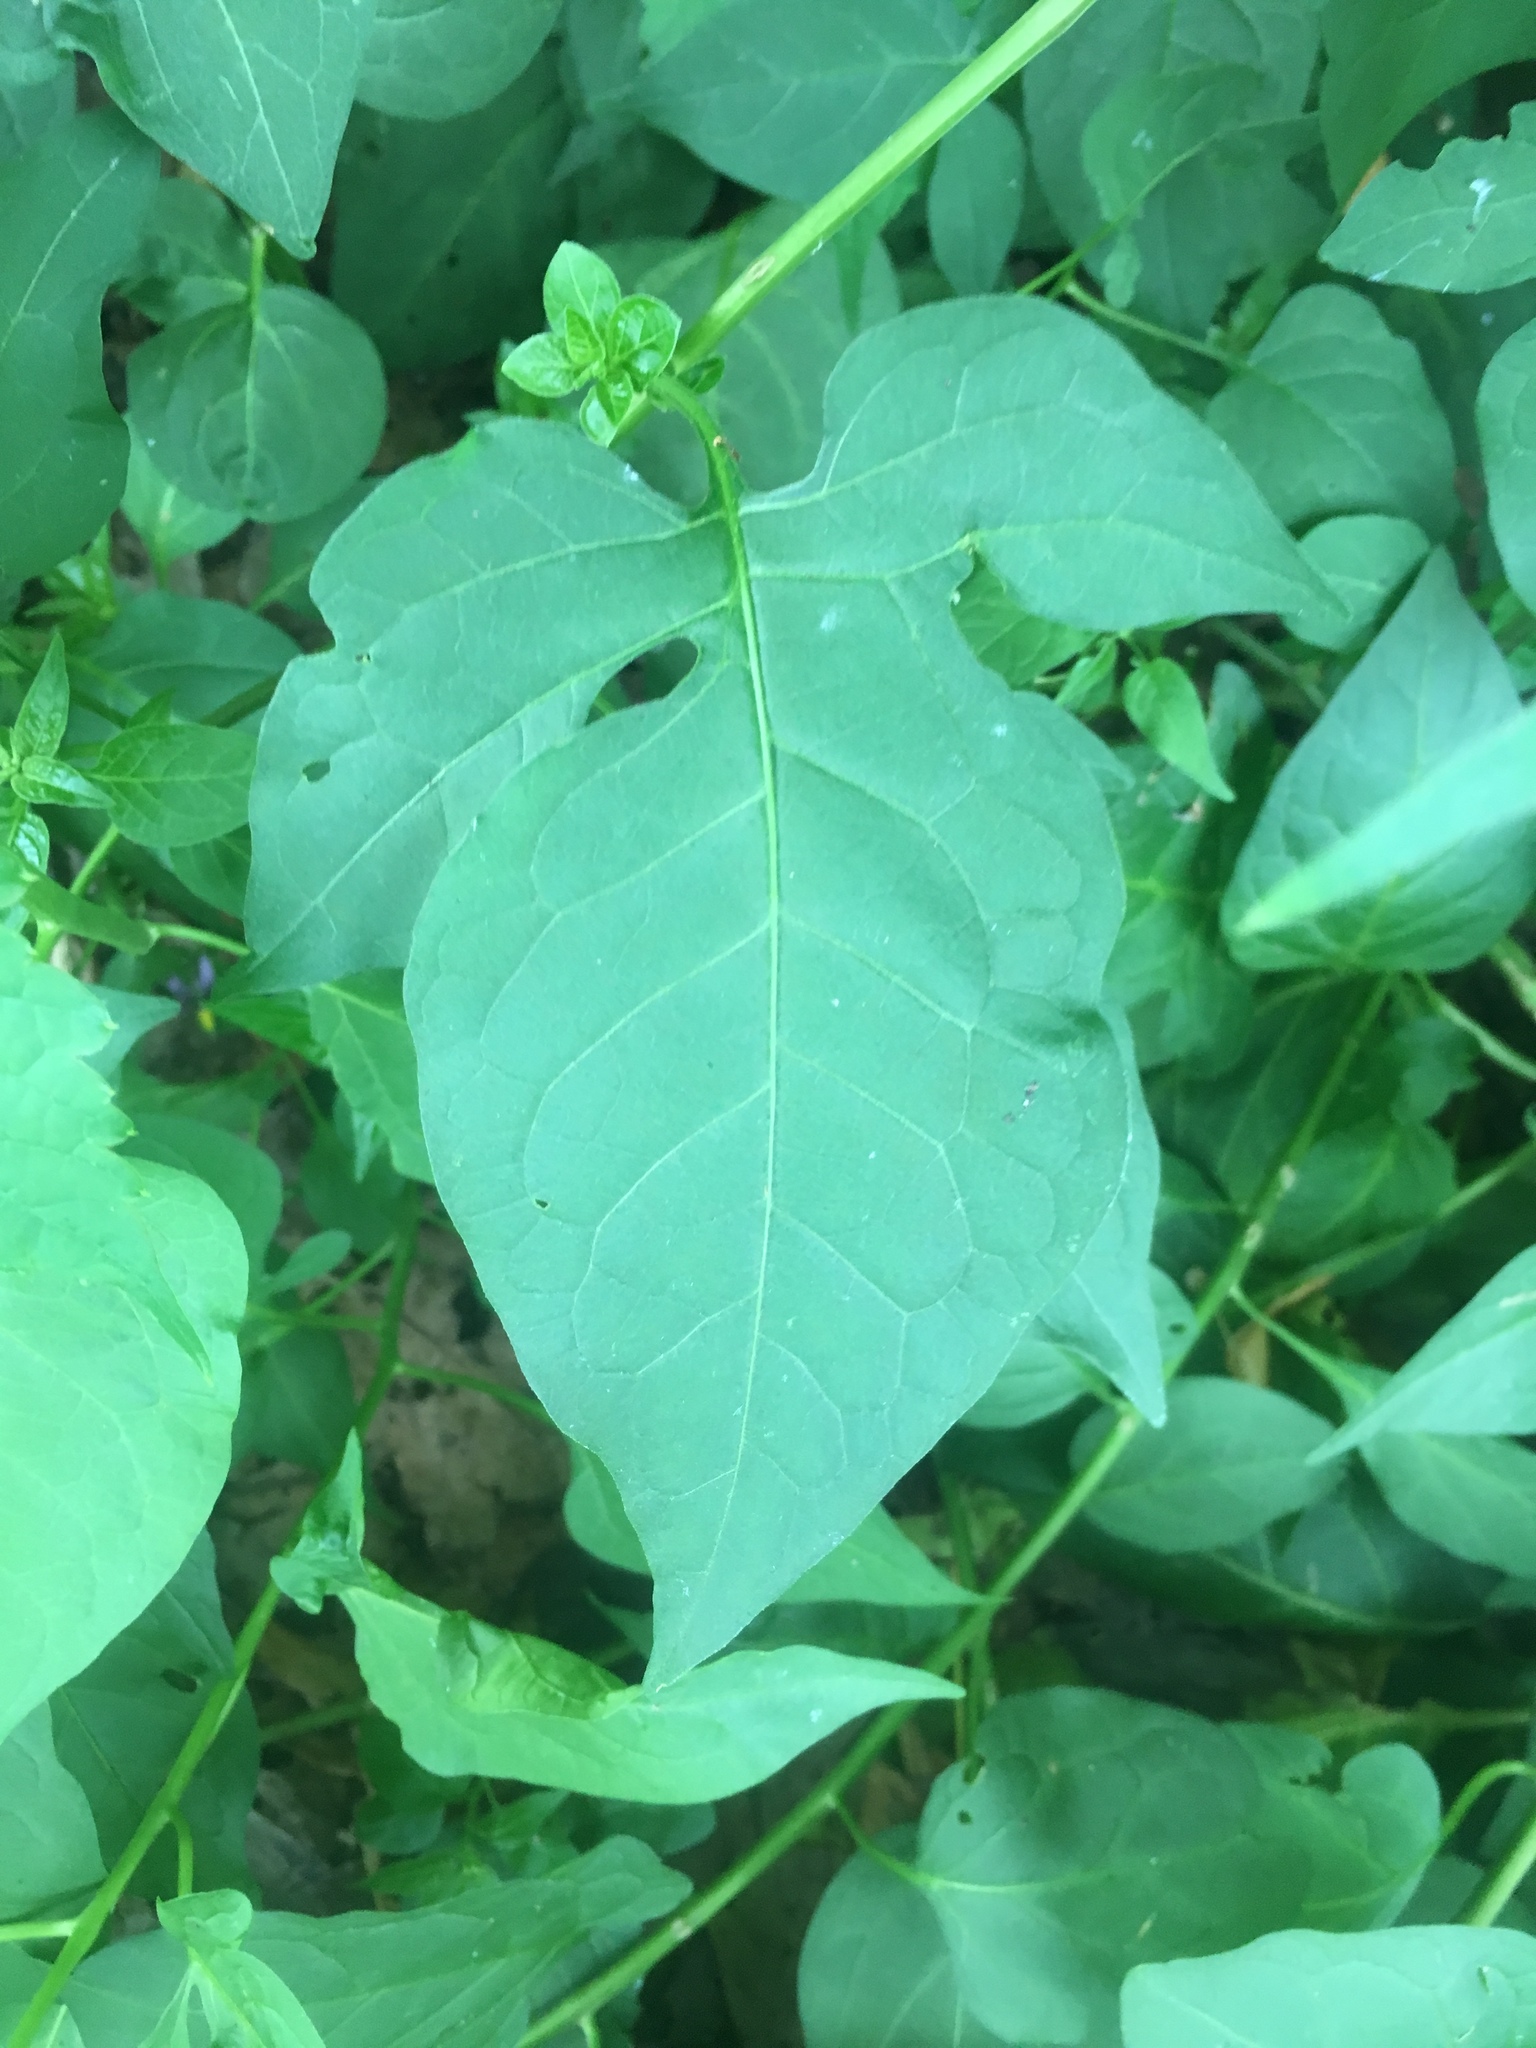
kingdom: Plantae
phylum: Tracheophyta
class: Magnoliopsida
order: Solanales
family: Solanaceae
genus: Solanum
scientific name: Solanum dulcamara
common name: Climbing nightshade
